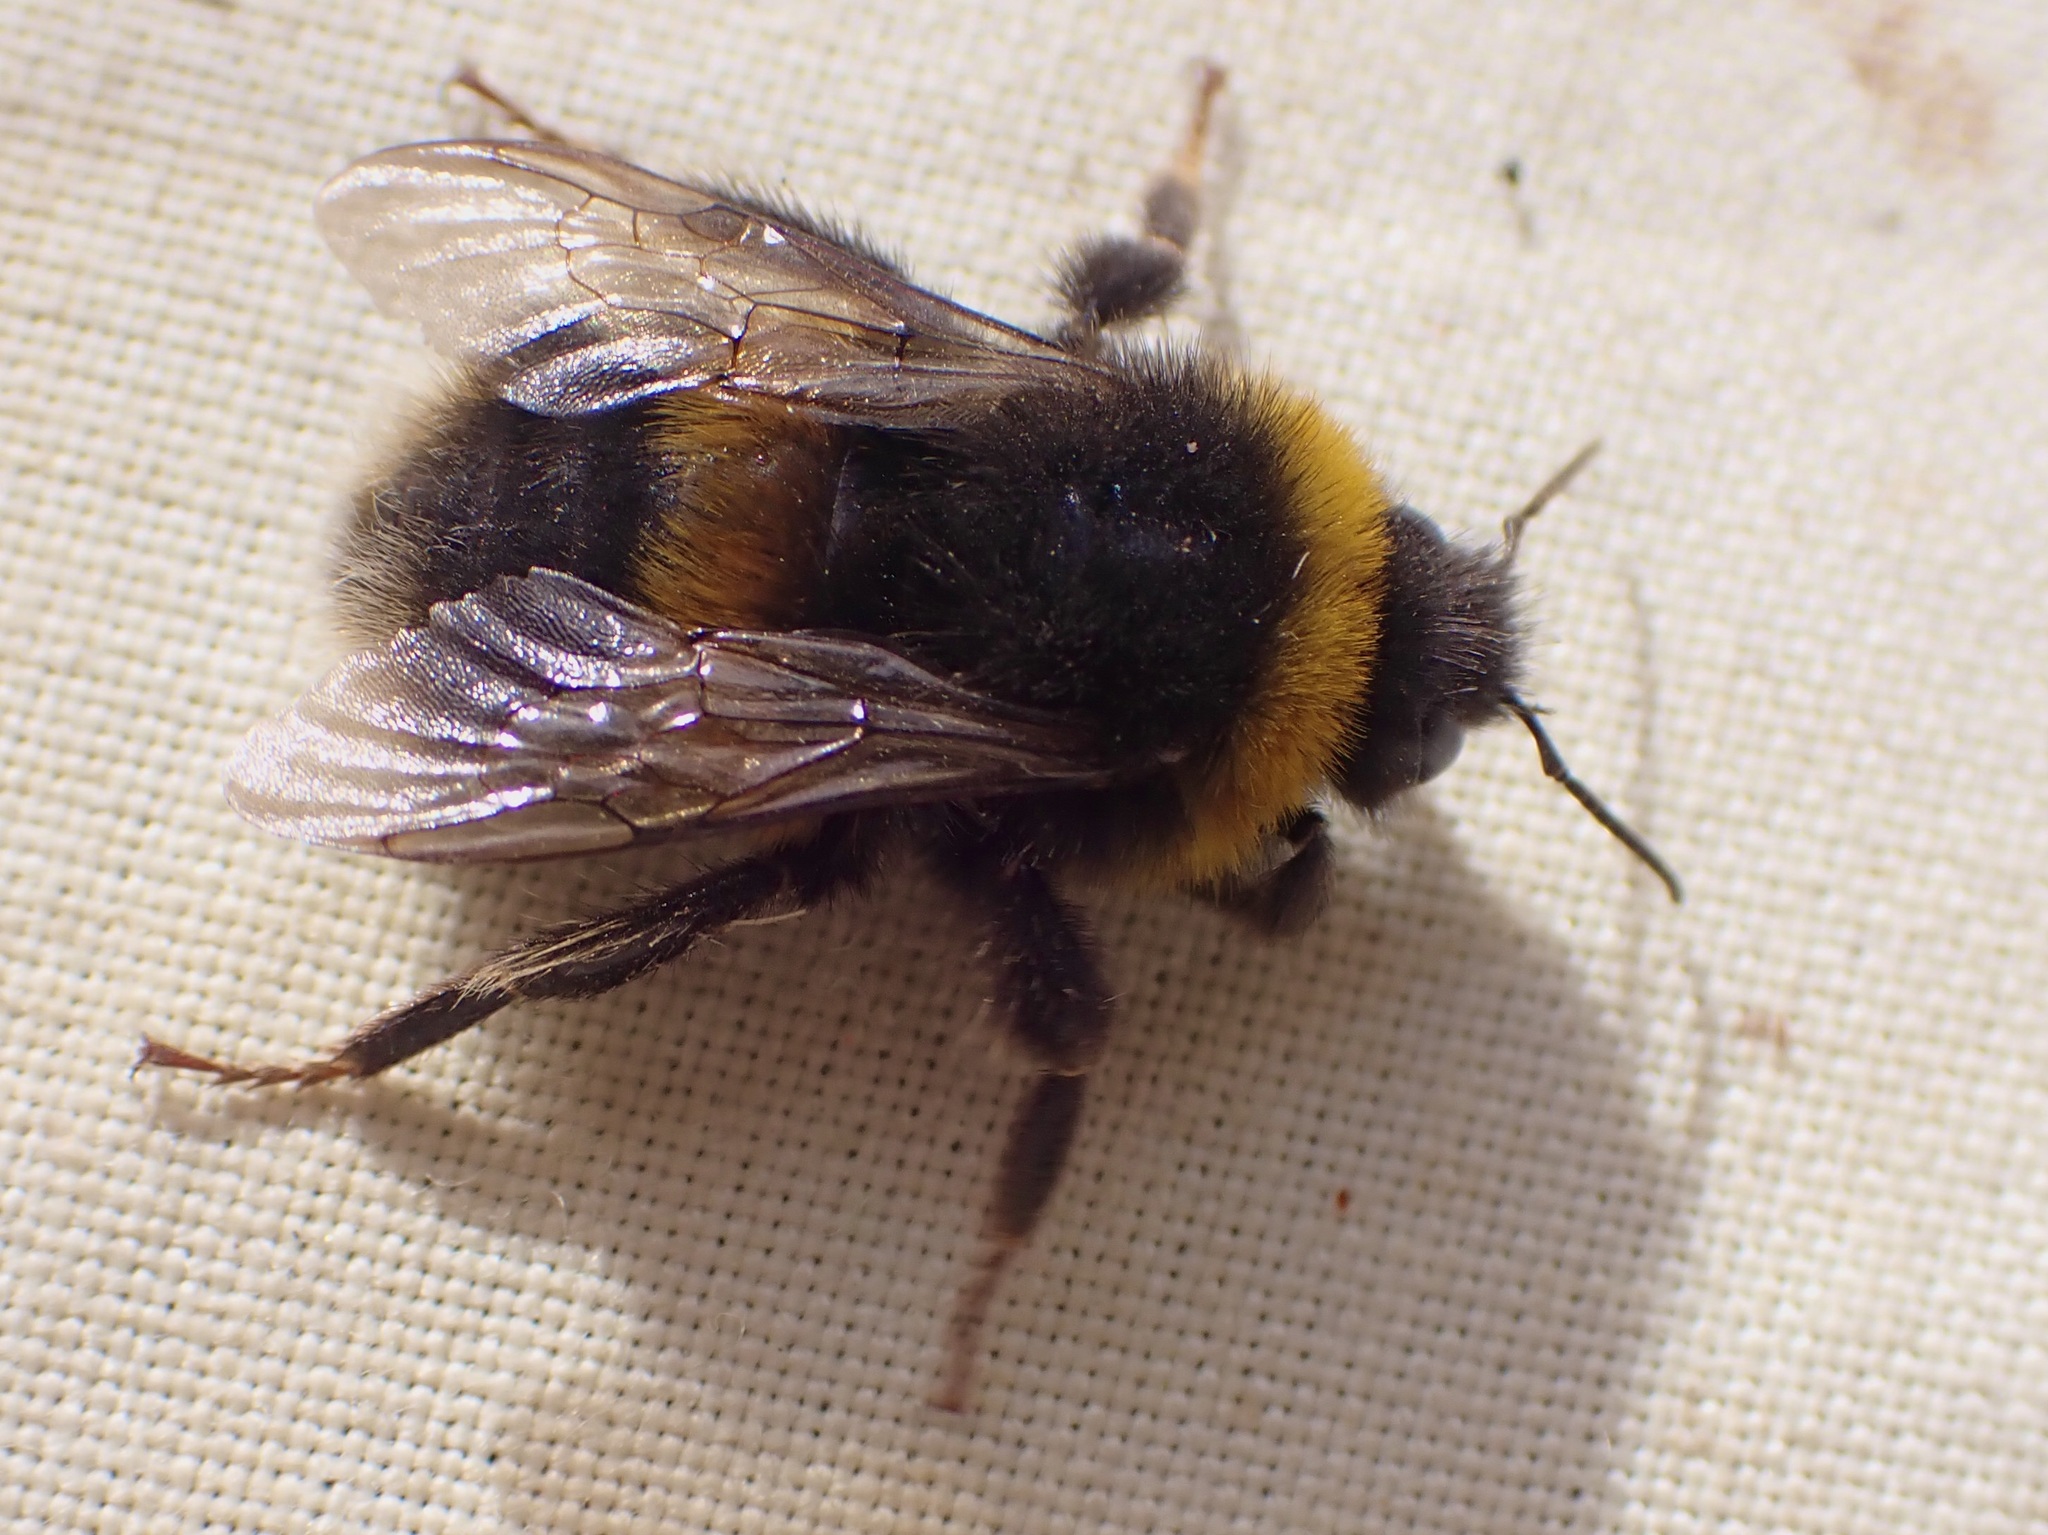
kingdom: Animalia
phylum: Arthropoda
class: Insecta
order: Hymenoptera
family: Apidae
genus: Bombus
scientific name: Bombus terrestris
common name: Buff-tailed bumblebee
